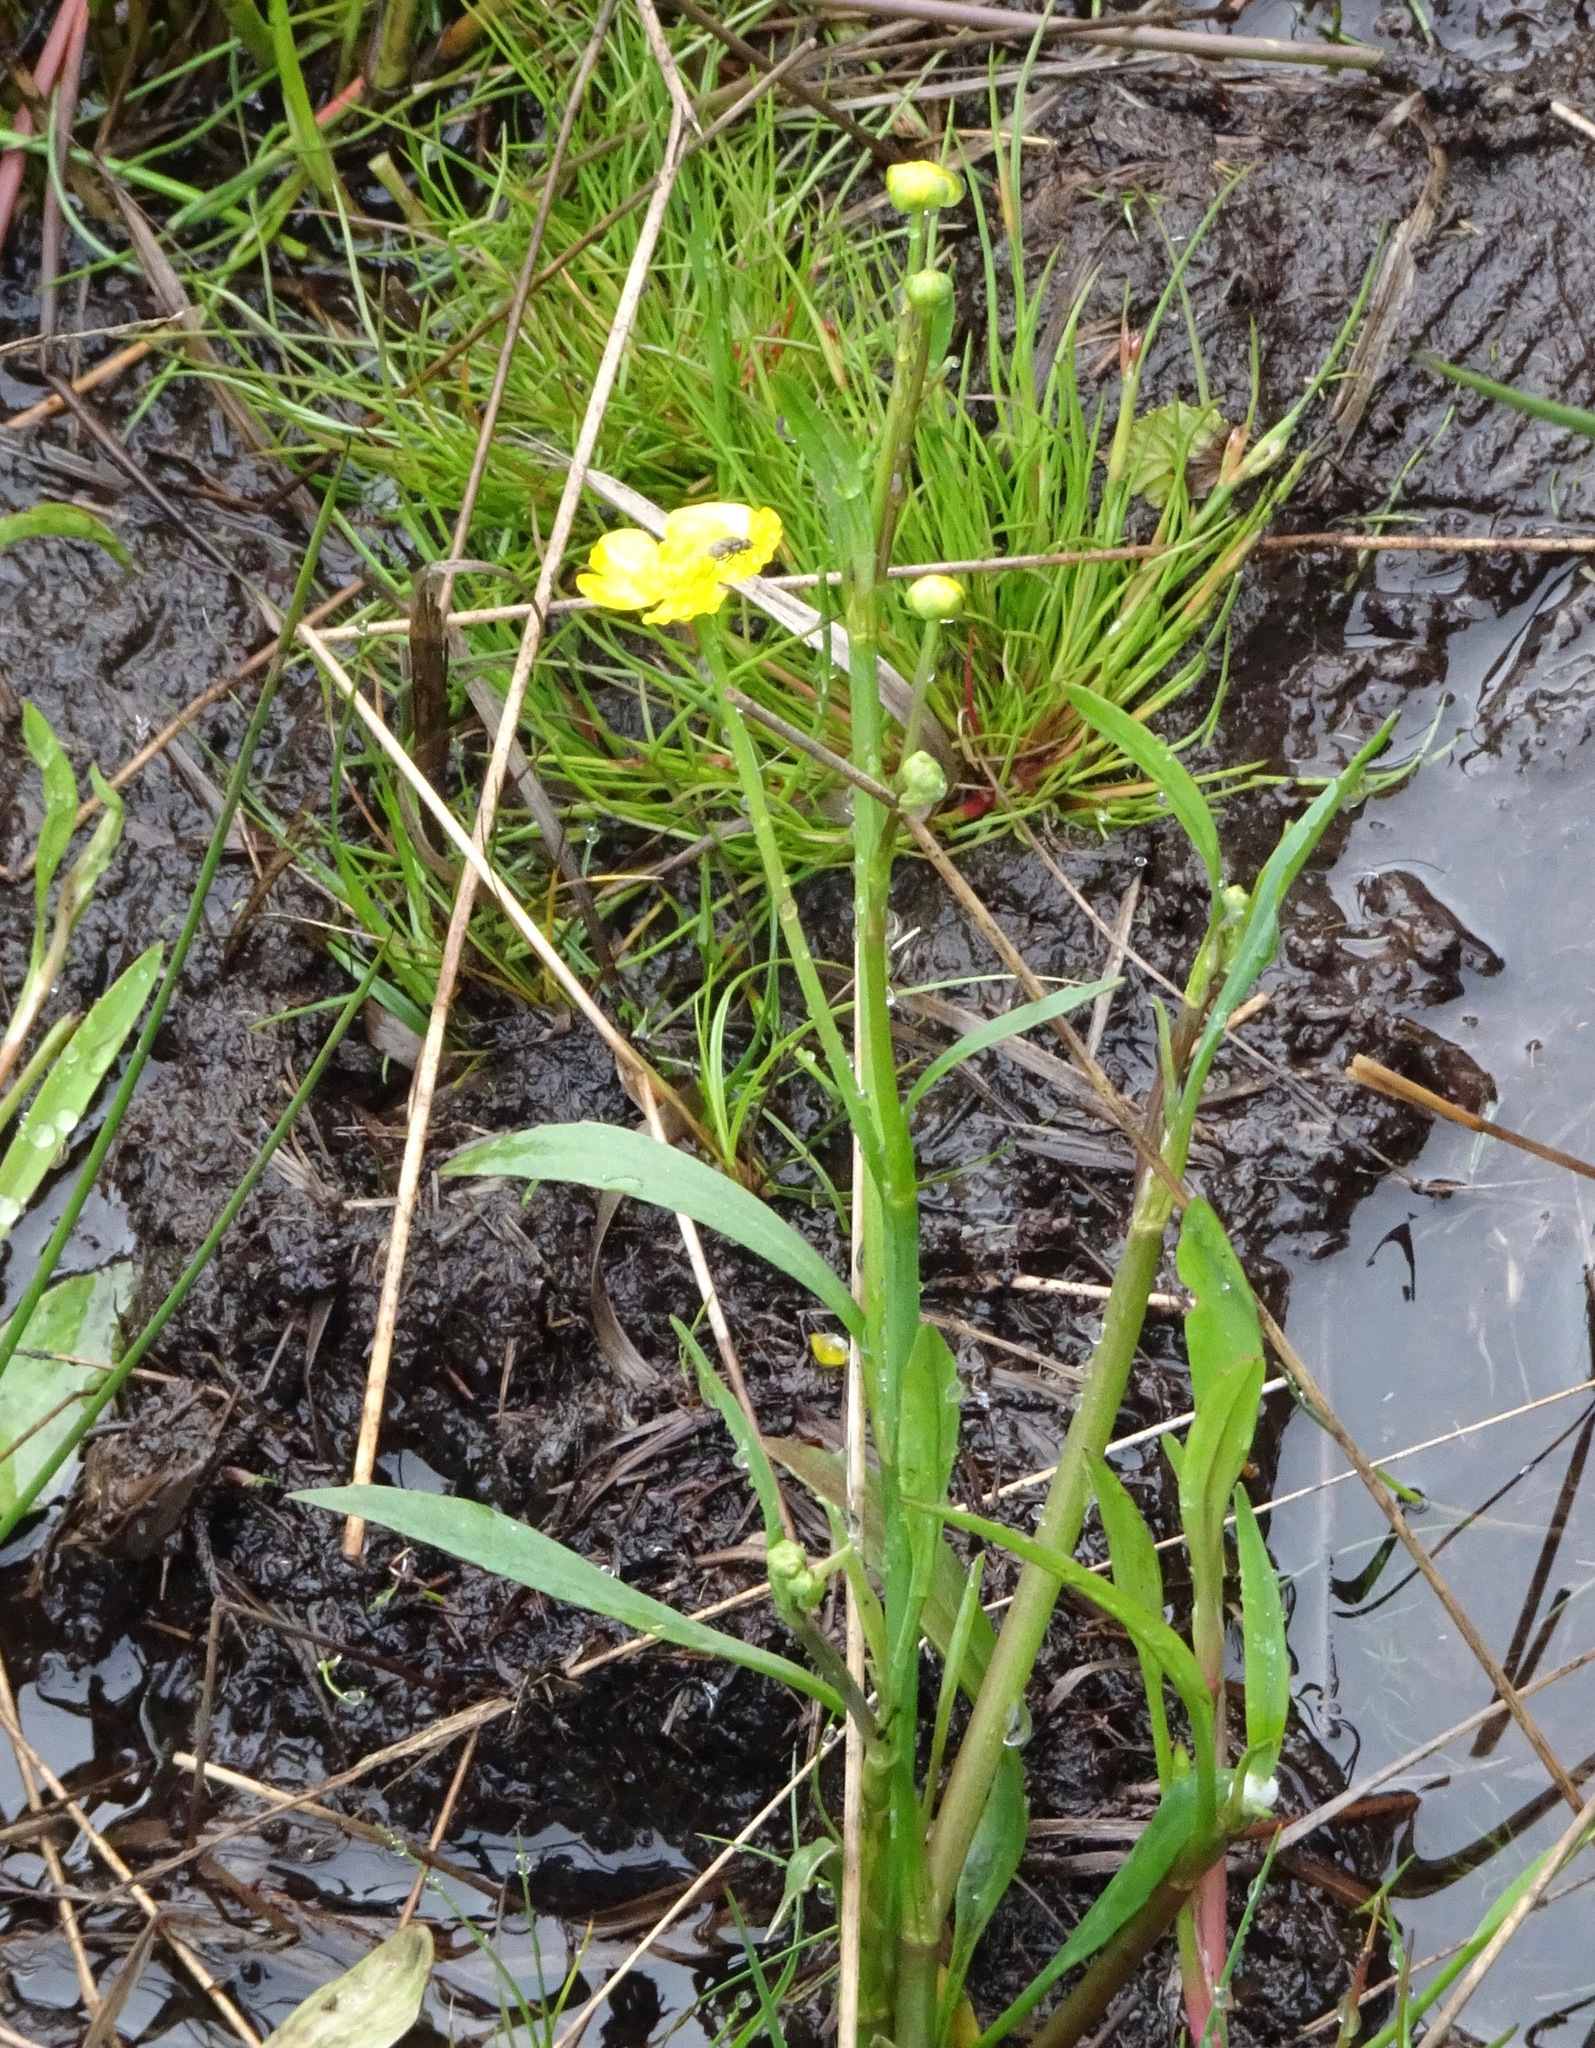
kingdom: Plantae
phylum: Tracheophyta
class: Magnoliopsida
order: Ranunculales
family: Ranunculaceae
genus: Ranunculus
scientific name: Ranunculus flammula
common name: Lesser spearwort
